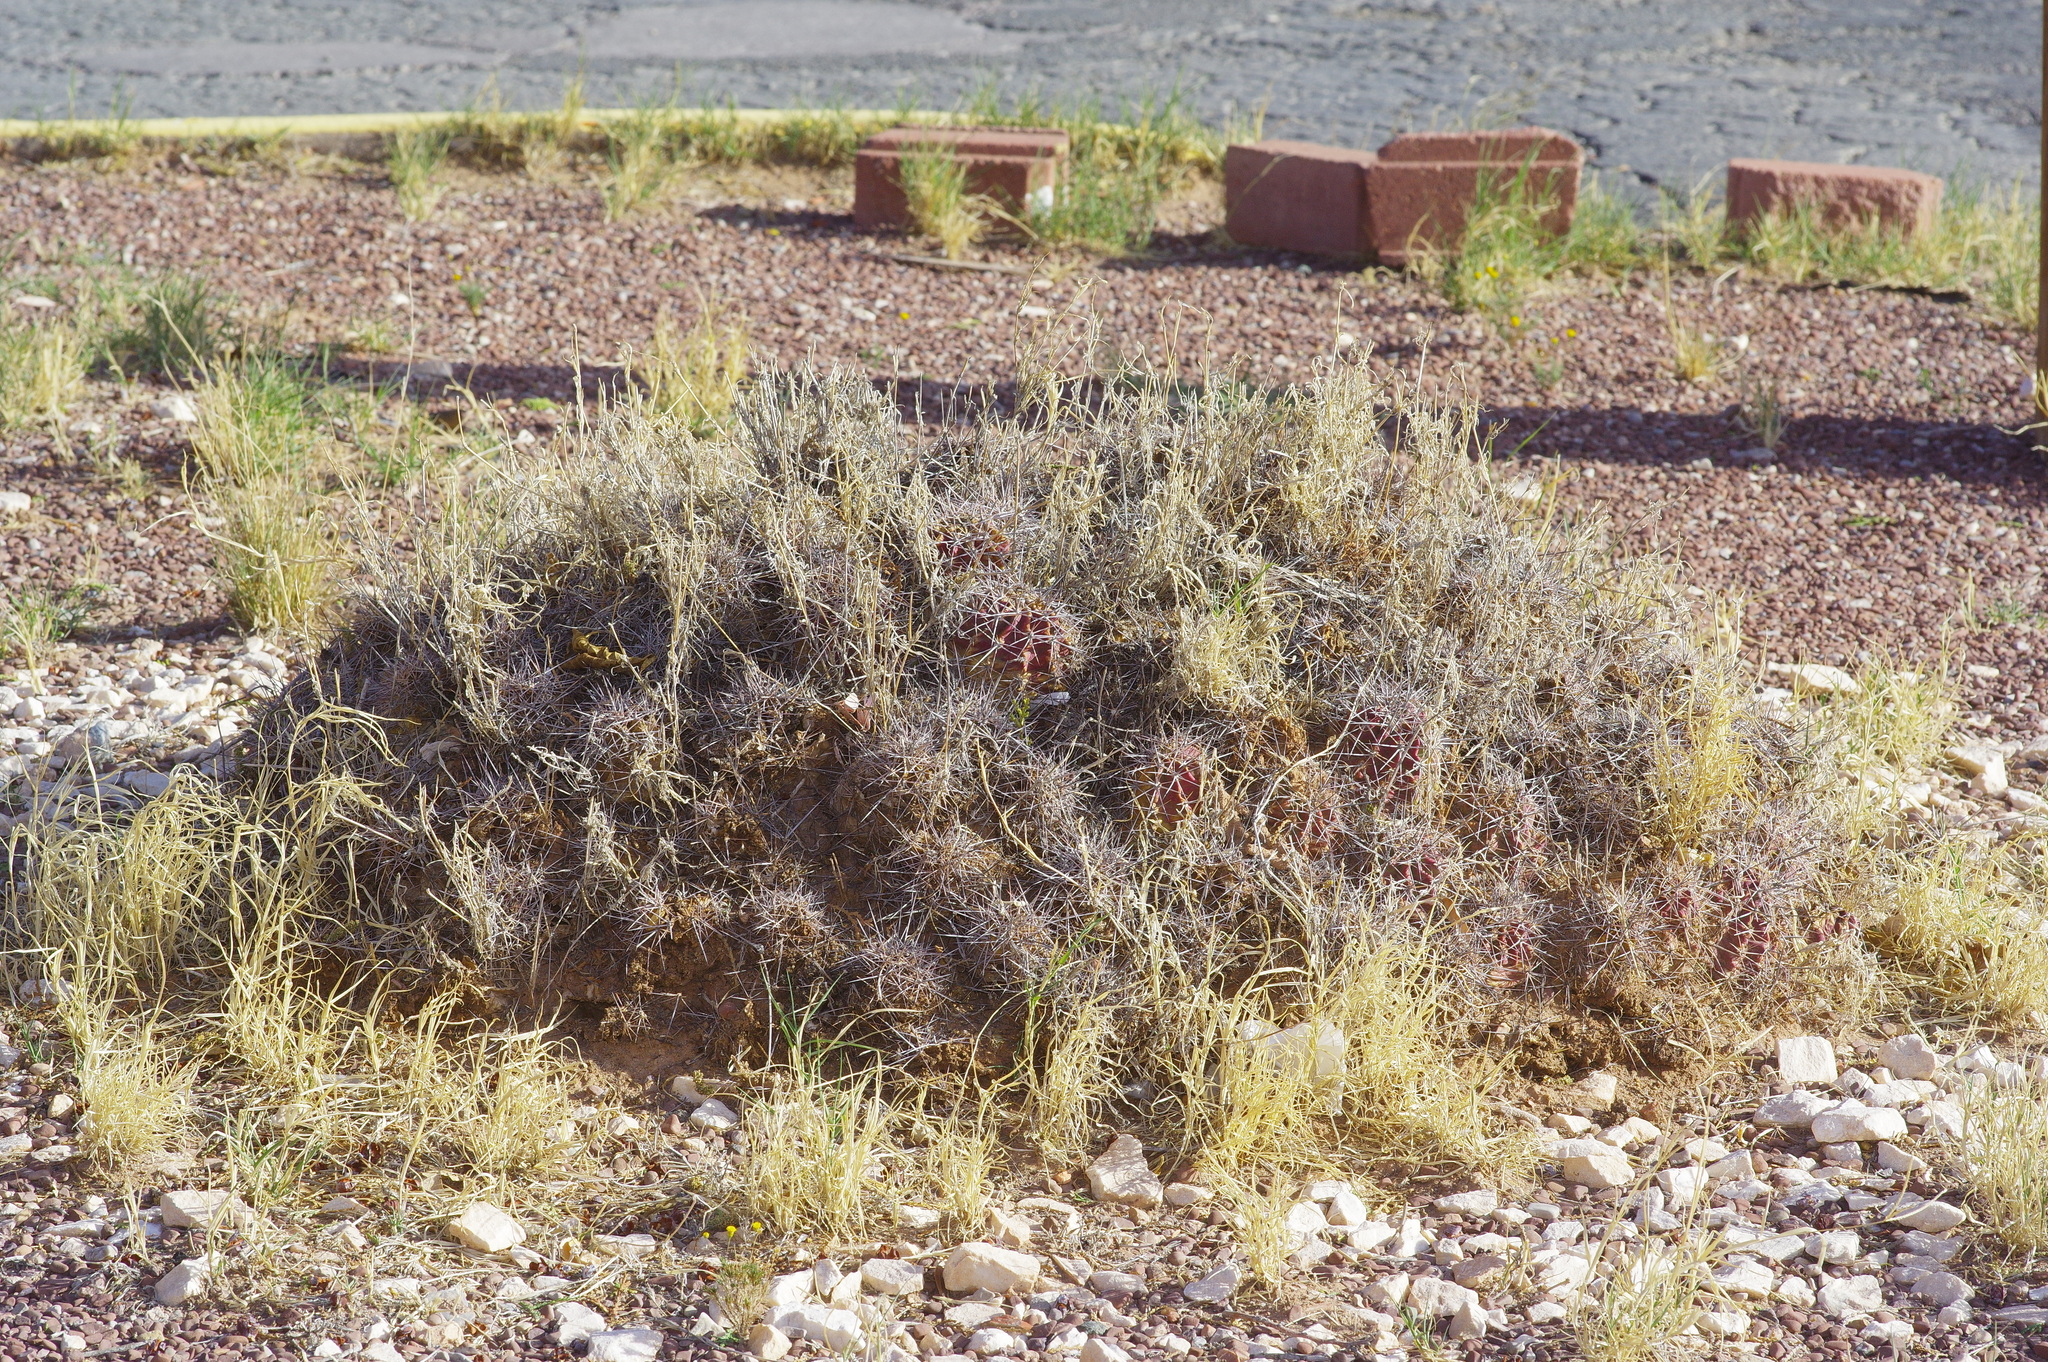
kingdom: Plantae
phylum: Tracheophyta
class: Magnoliopsida
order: Caryophyllales
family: Cactaceae
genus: Echinocereus
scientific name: Echinocereus coccineus
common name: Scarlet hedgehog cactus
